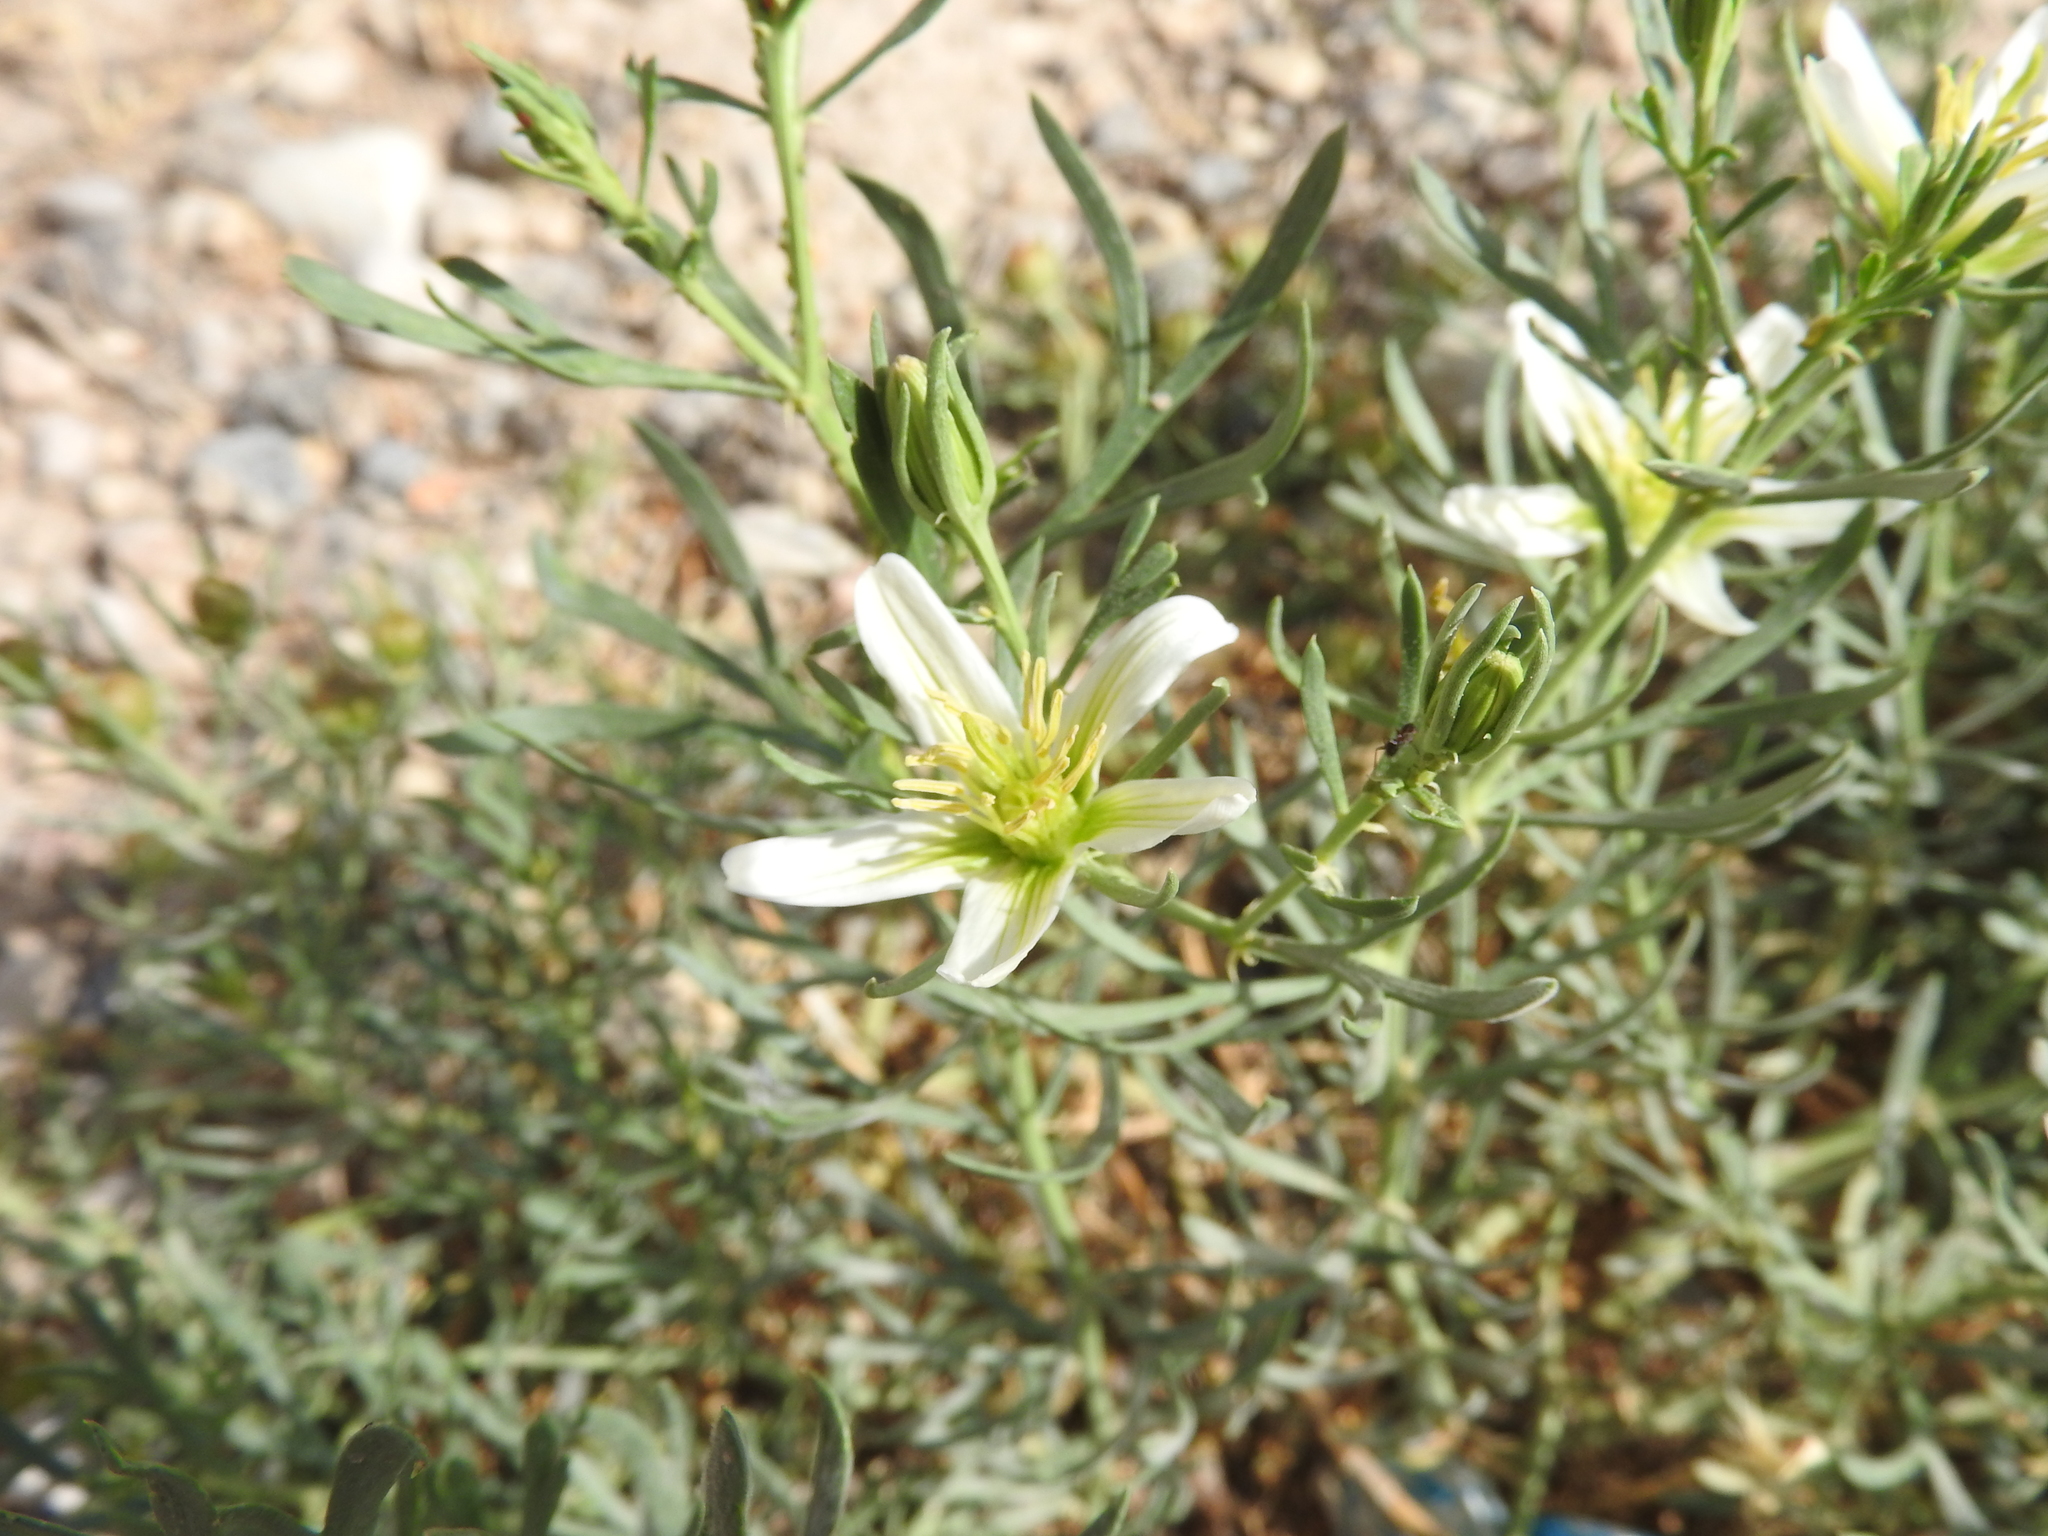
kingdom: Plantae
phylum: Tracheophyta
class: Magnoliopsida
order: Sapindales
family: Tetradiclidaceae
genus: Peganum
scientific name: Peganum harmala
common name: Harmal peganum
